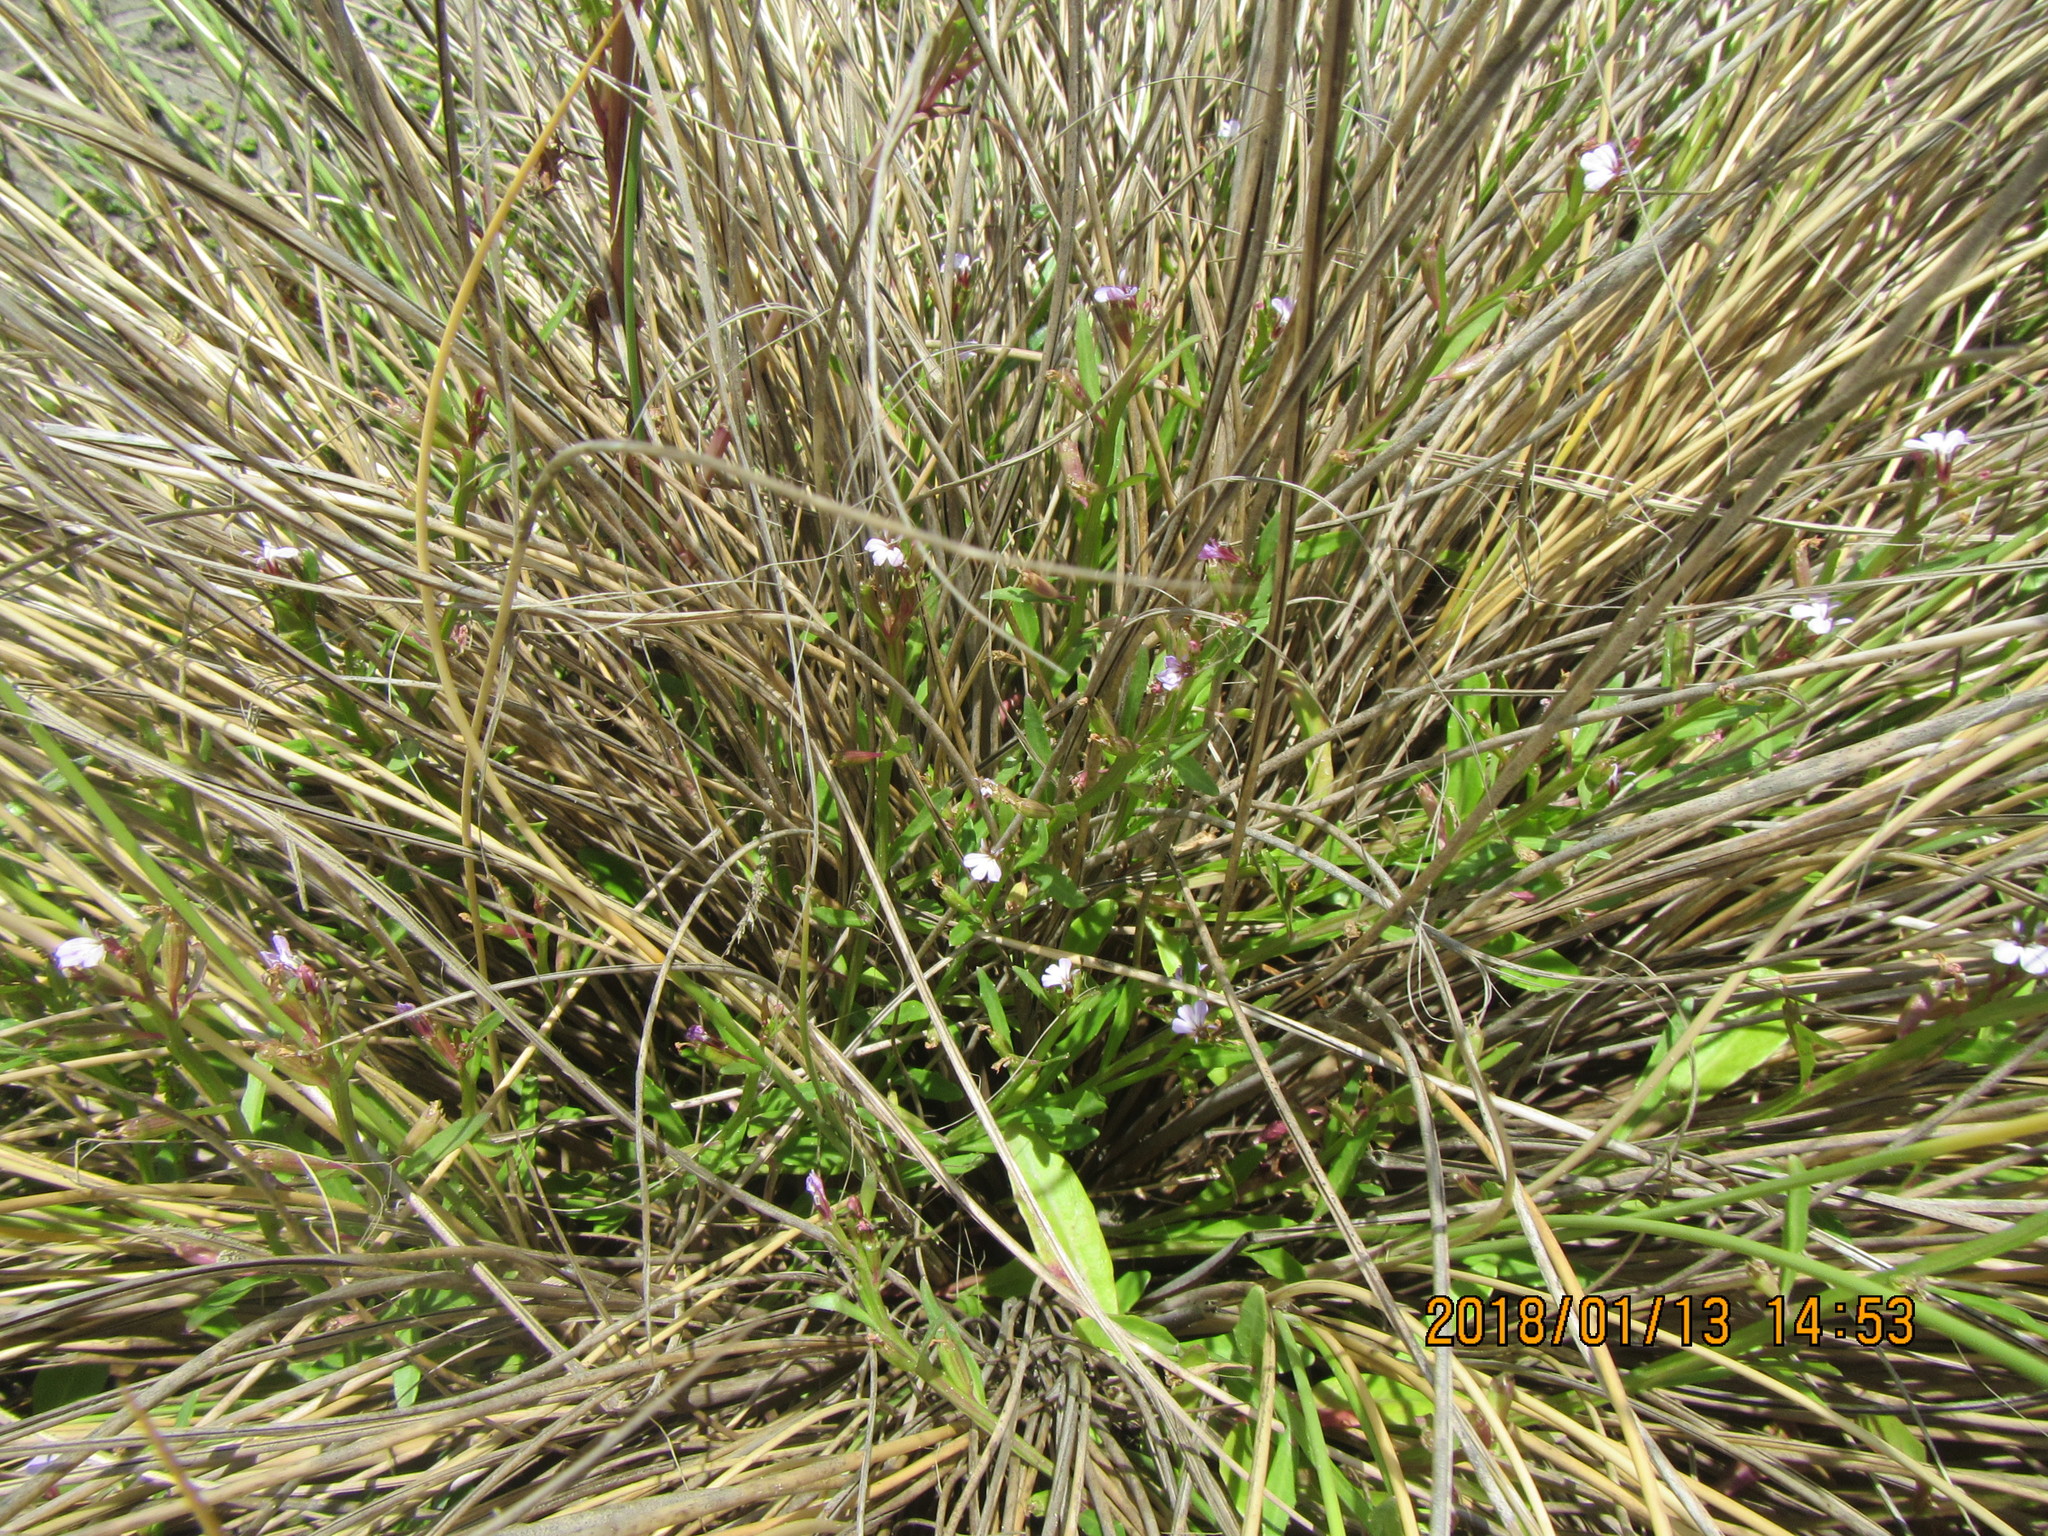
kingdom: Plantae
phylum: Tracheophyta
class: Magnoliopsida
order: Asterales
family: Campanulaceae
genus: Lobelia
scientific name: Lobelia anceps
